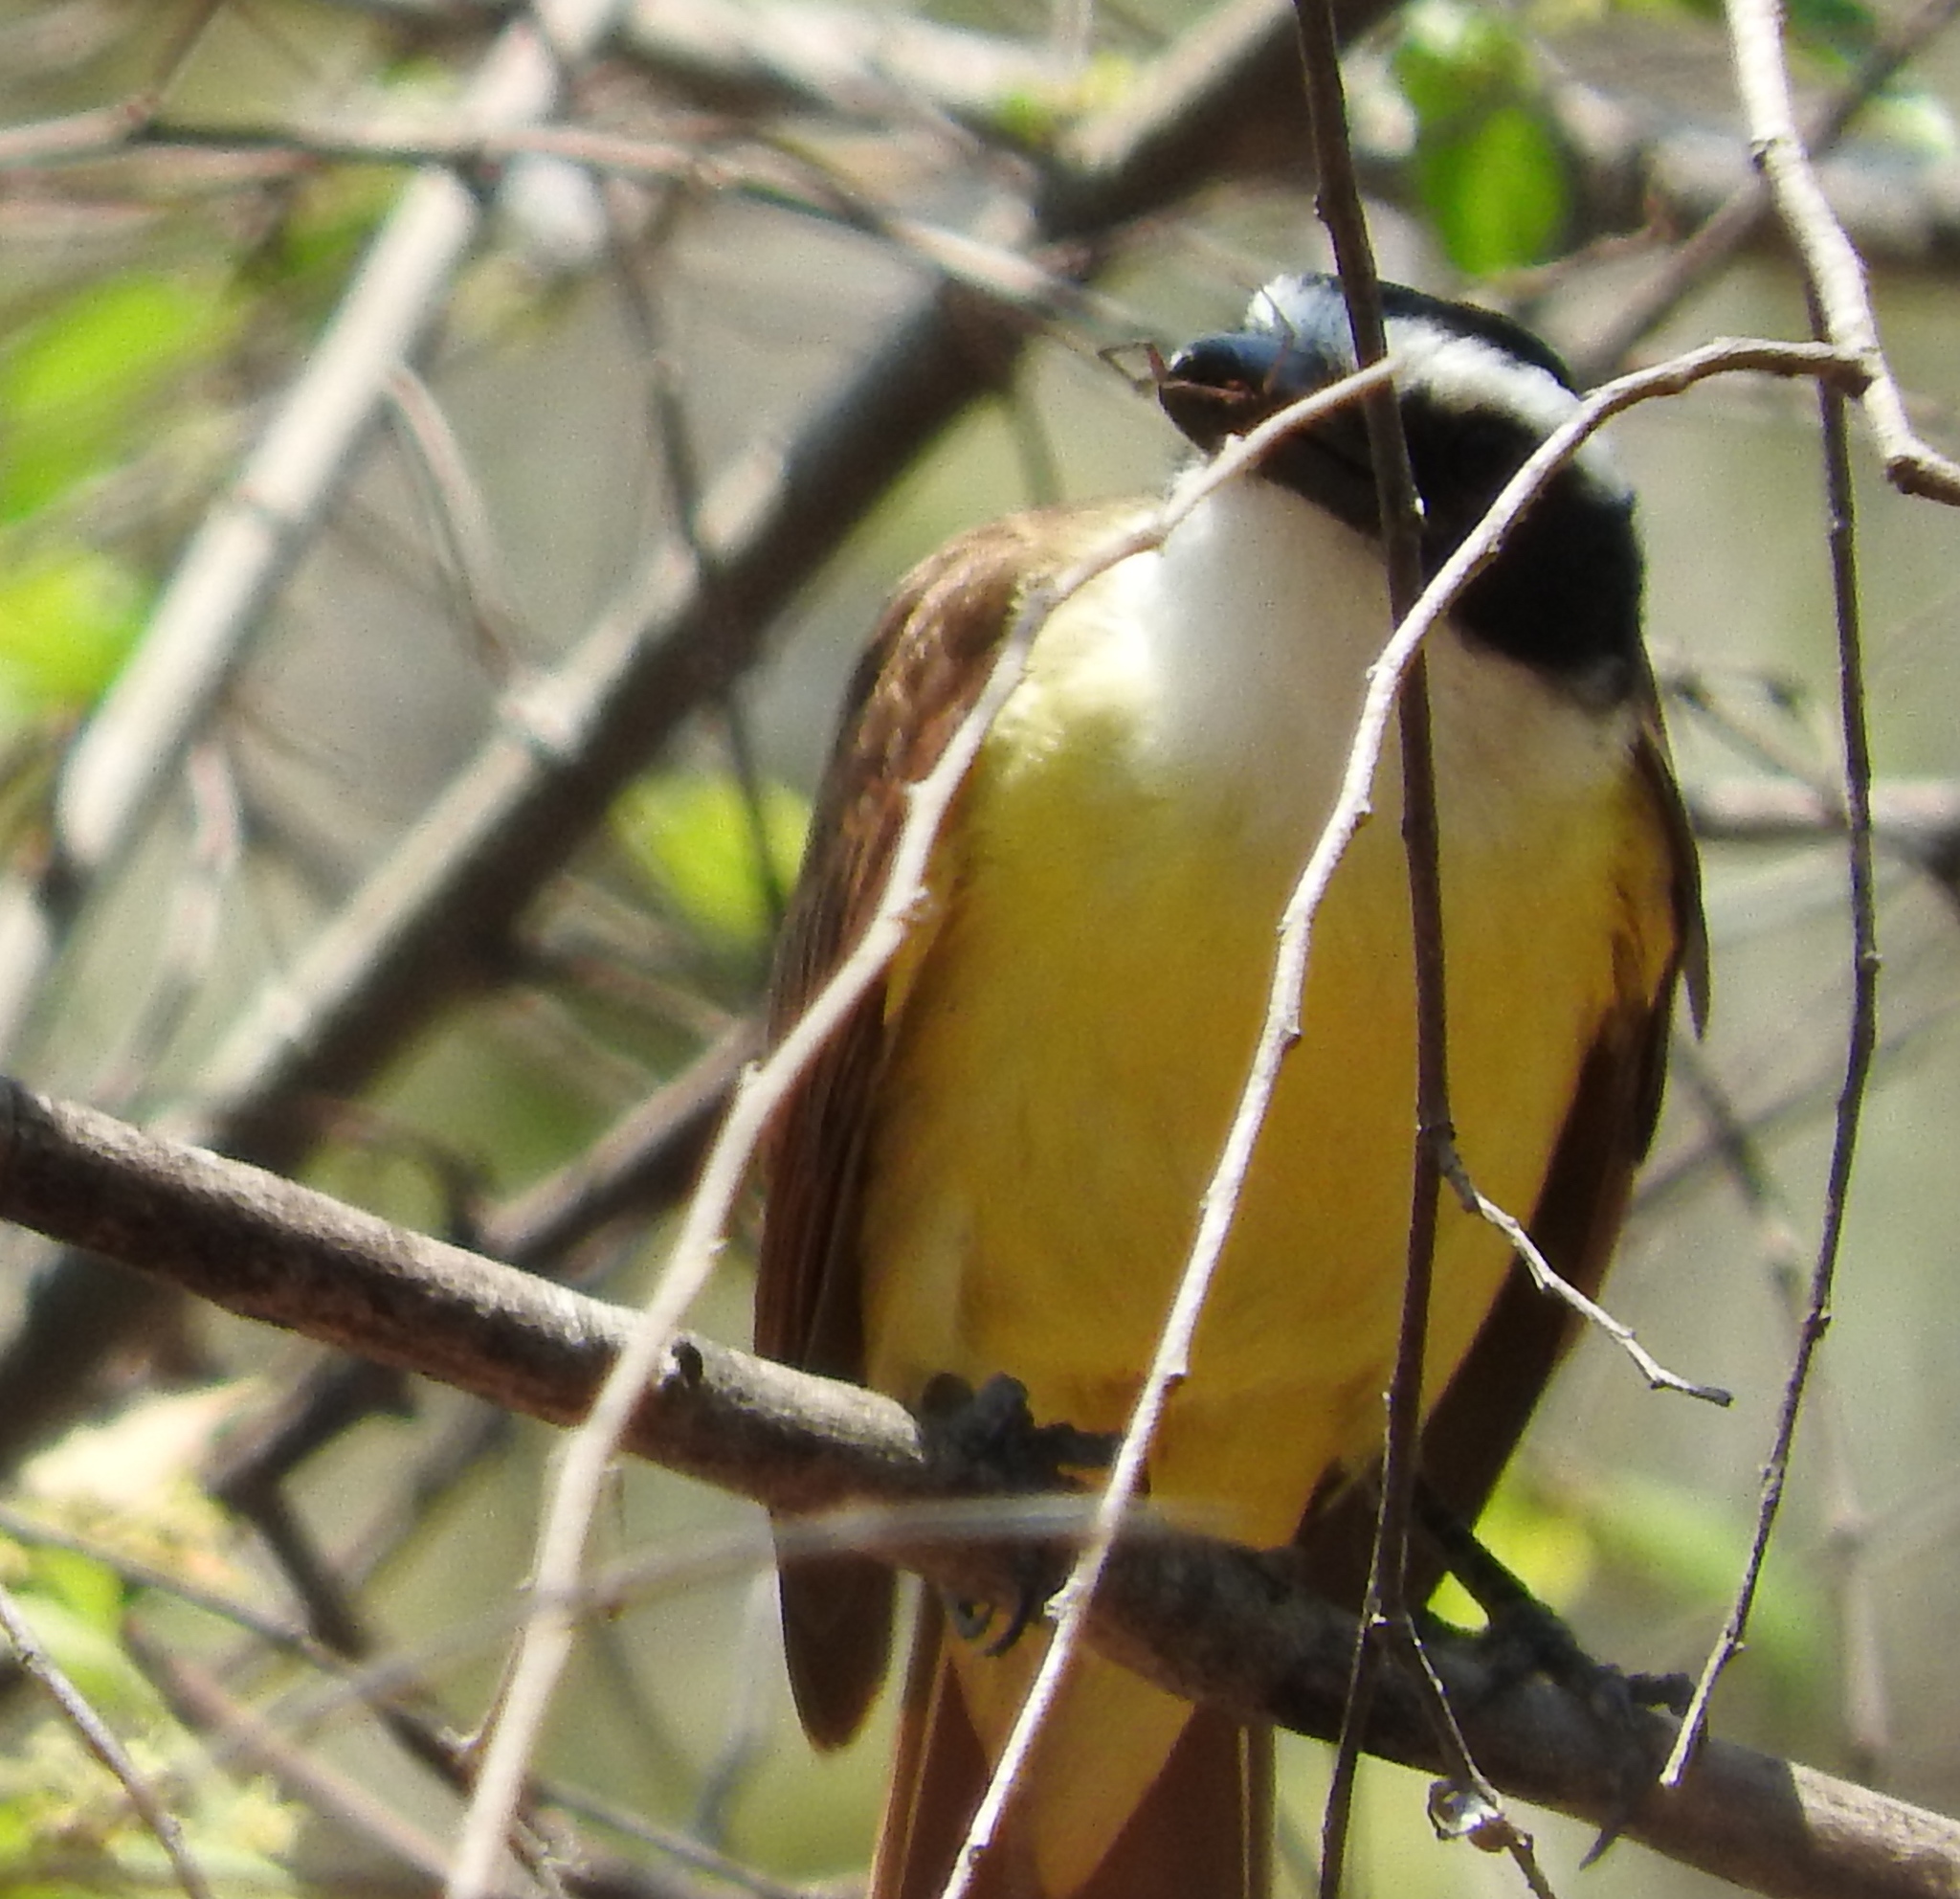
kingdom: Animalia
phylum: Chordata
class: Aves
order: Passeriformes
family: Tyrannidae
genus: Pitangus
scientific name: Pitangus sulphuratus
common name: Great kiskadee
